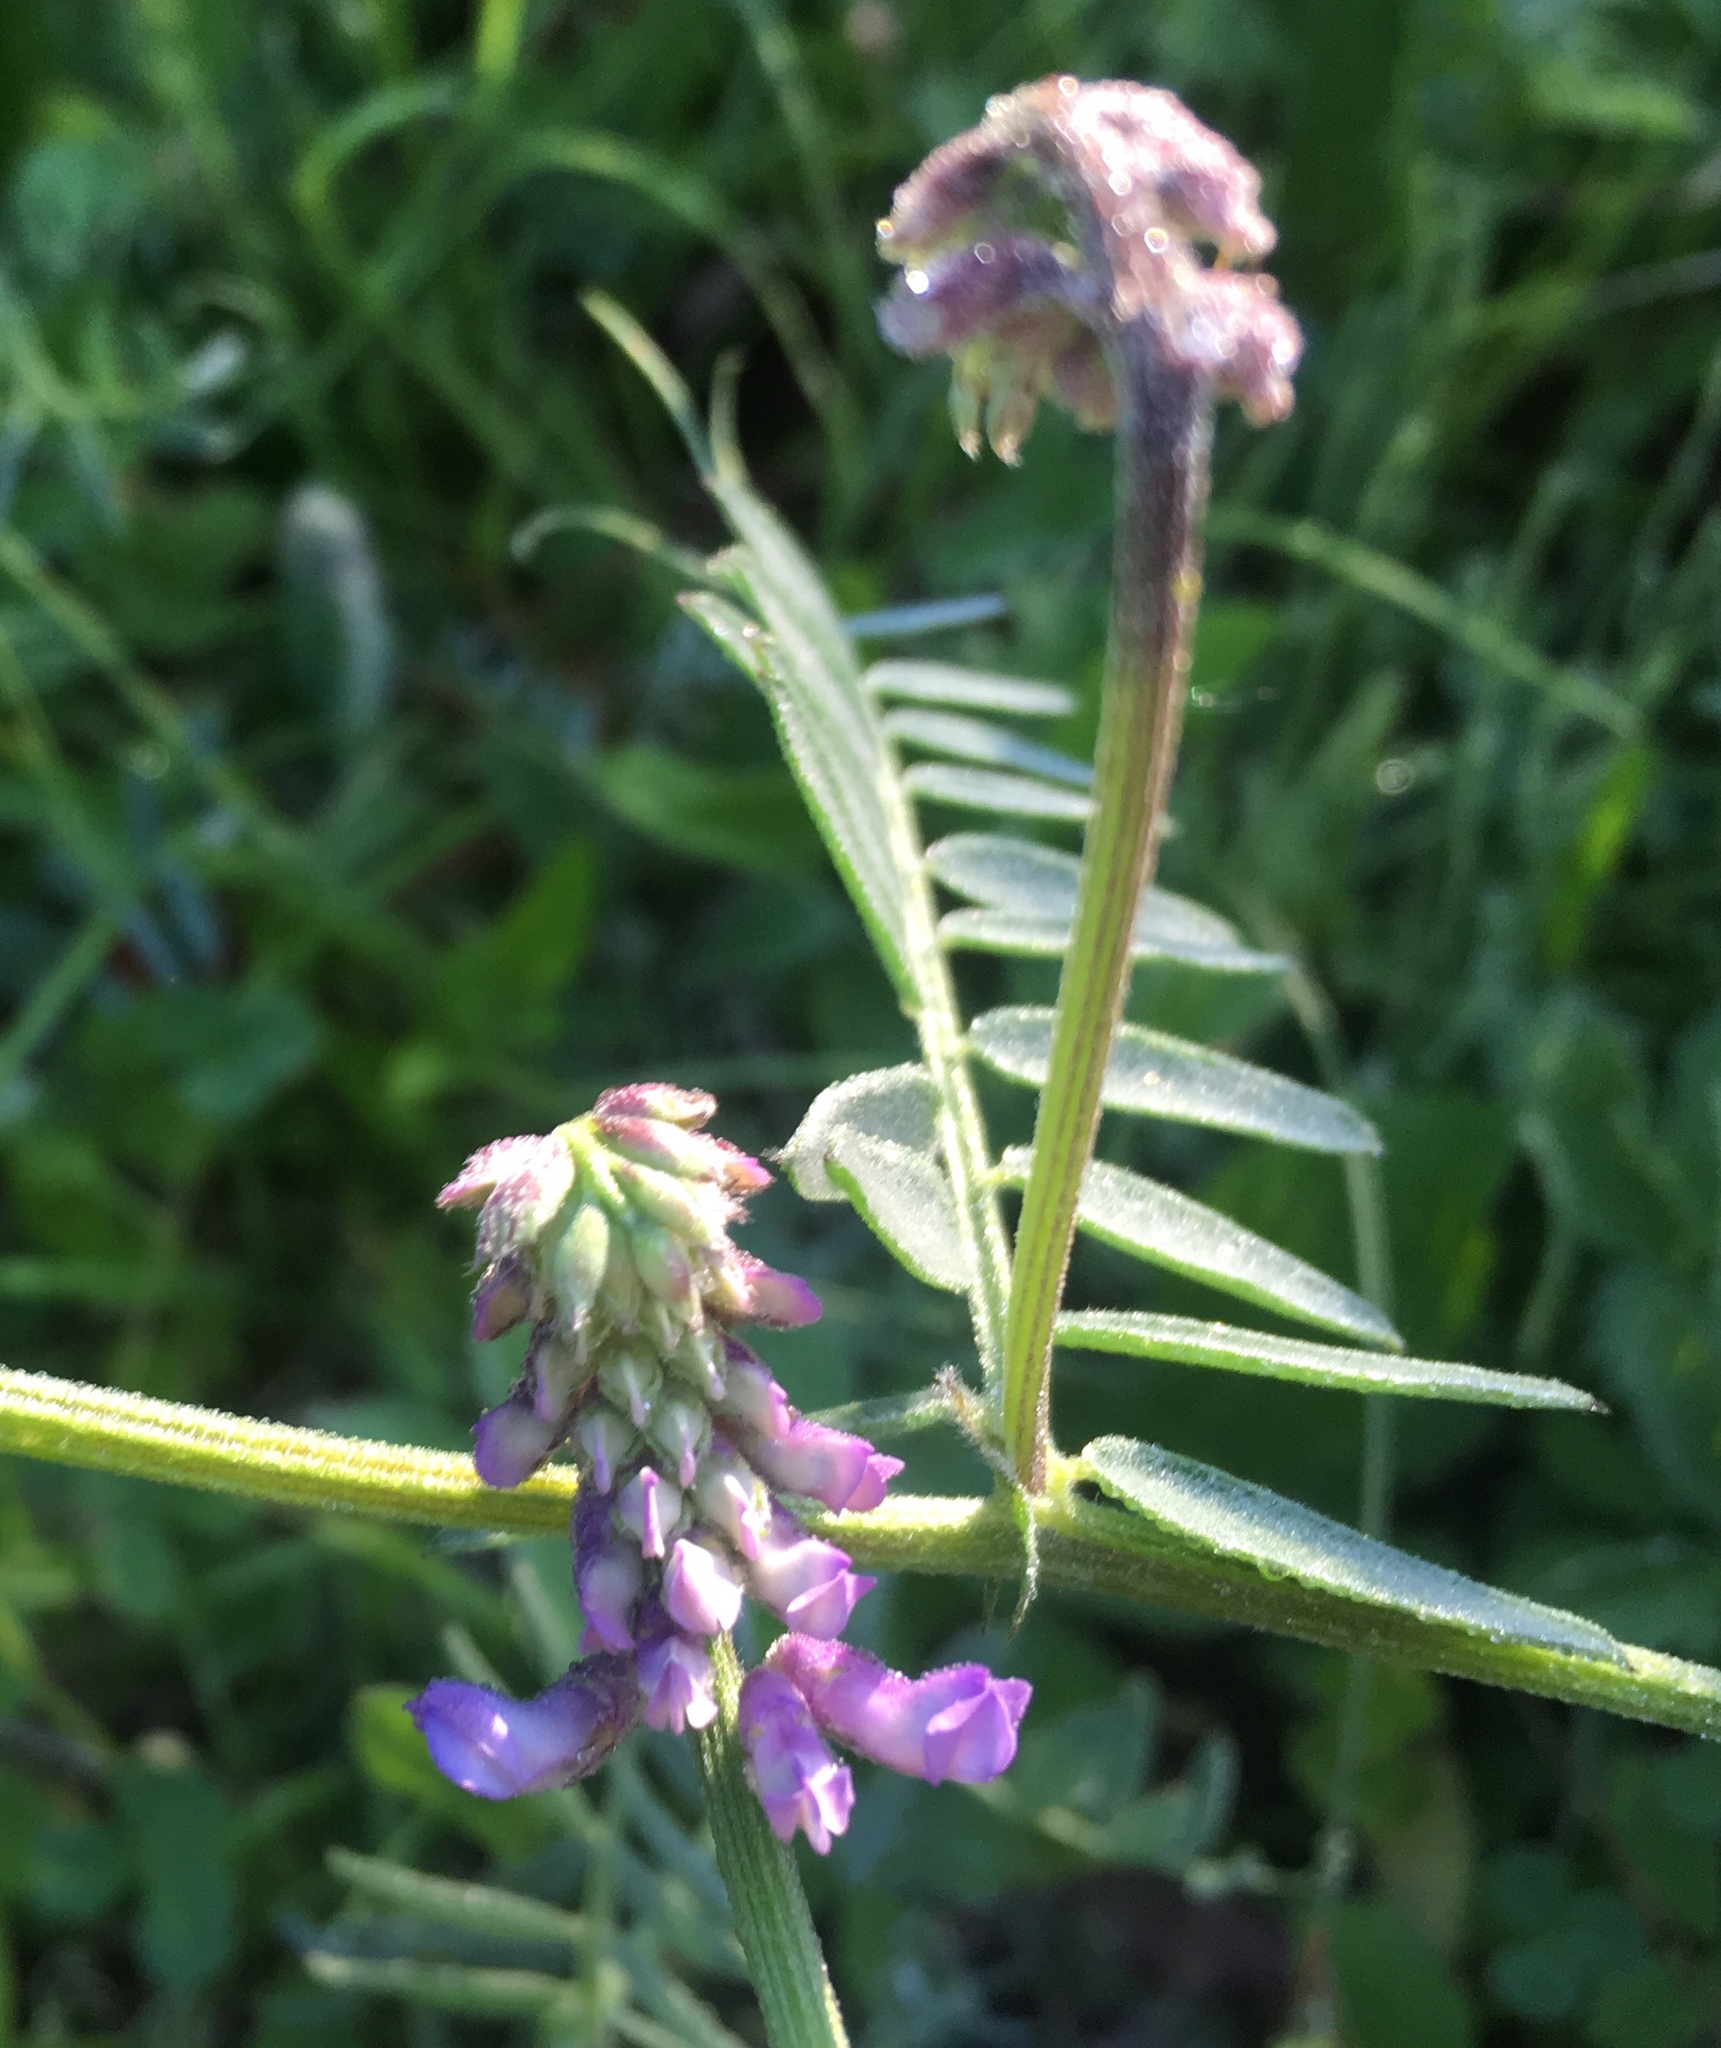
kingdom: Plantae
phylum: Tracheophyta
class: Magnoliopsida
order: Fabales
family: Fabaceae
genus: Vicia
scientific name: Vicia cracca
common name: Bird vetch
